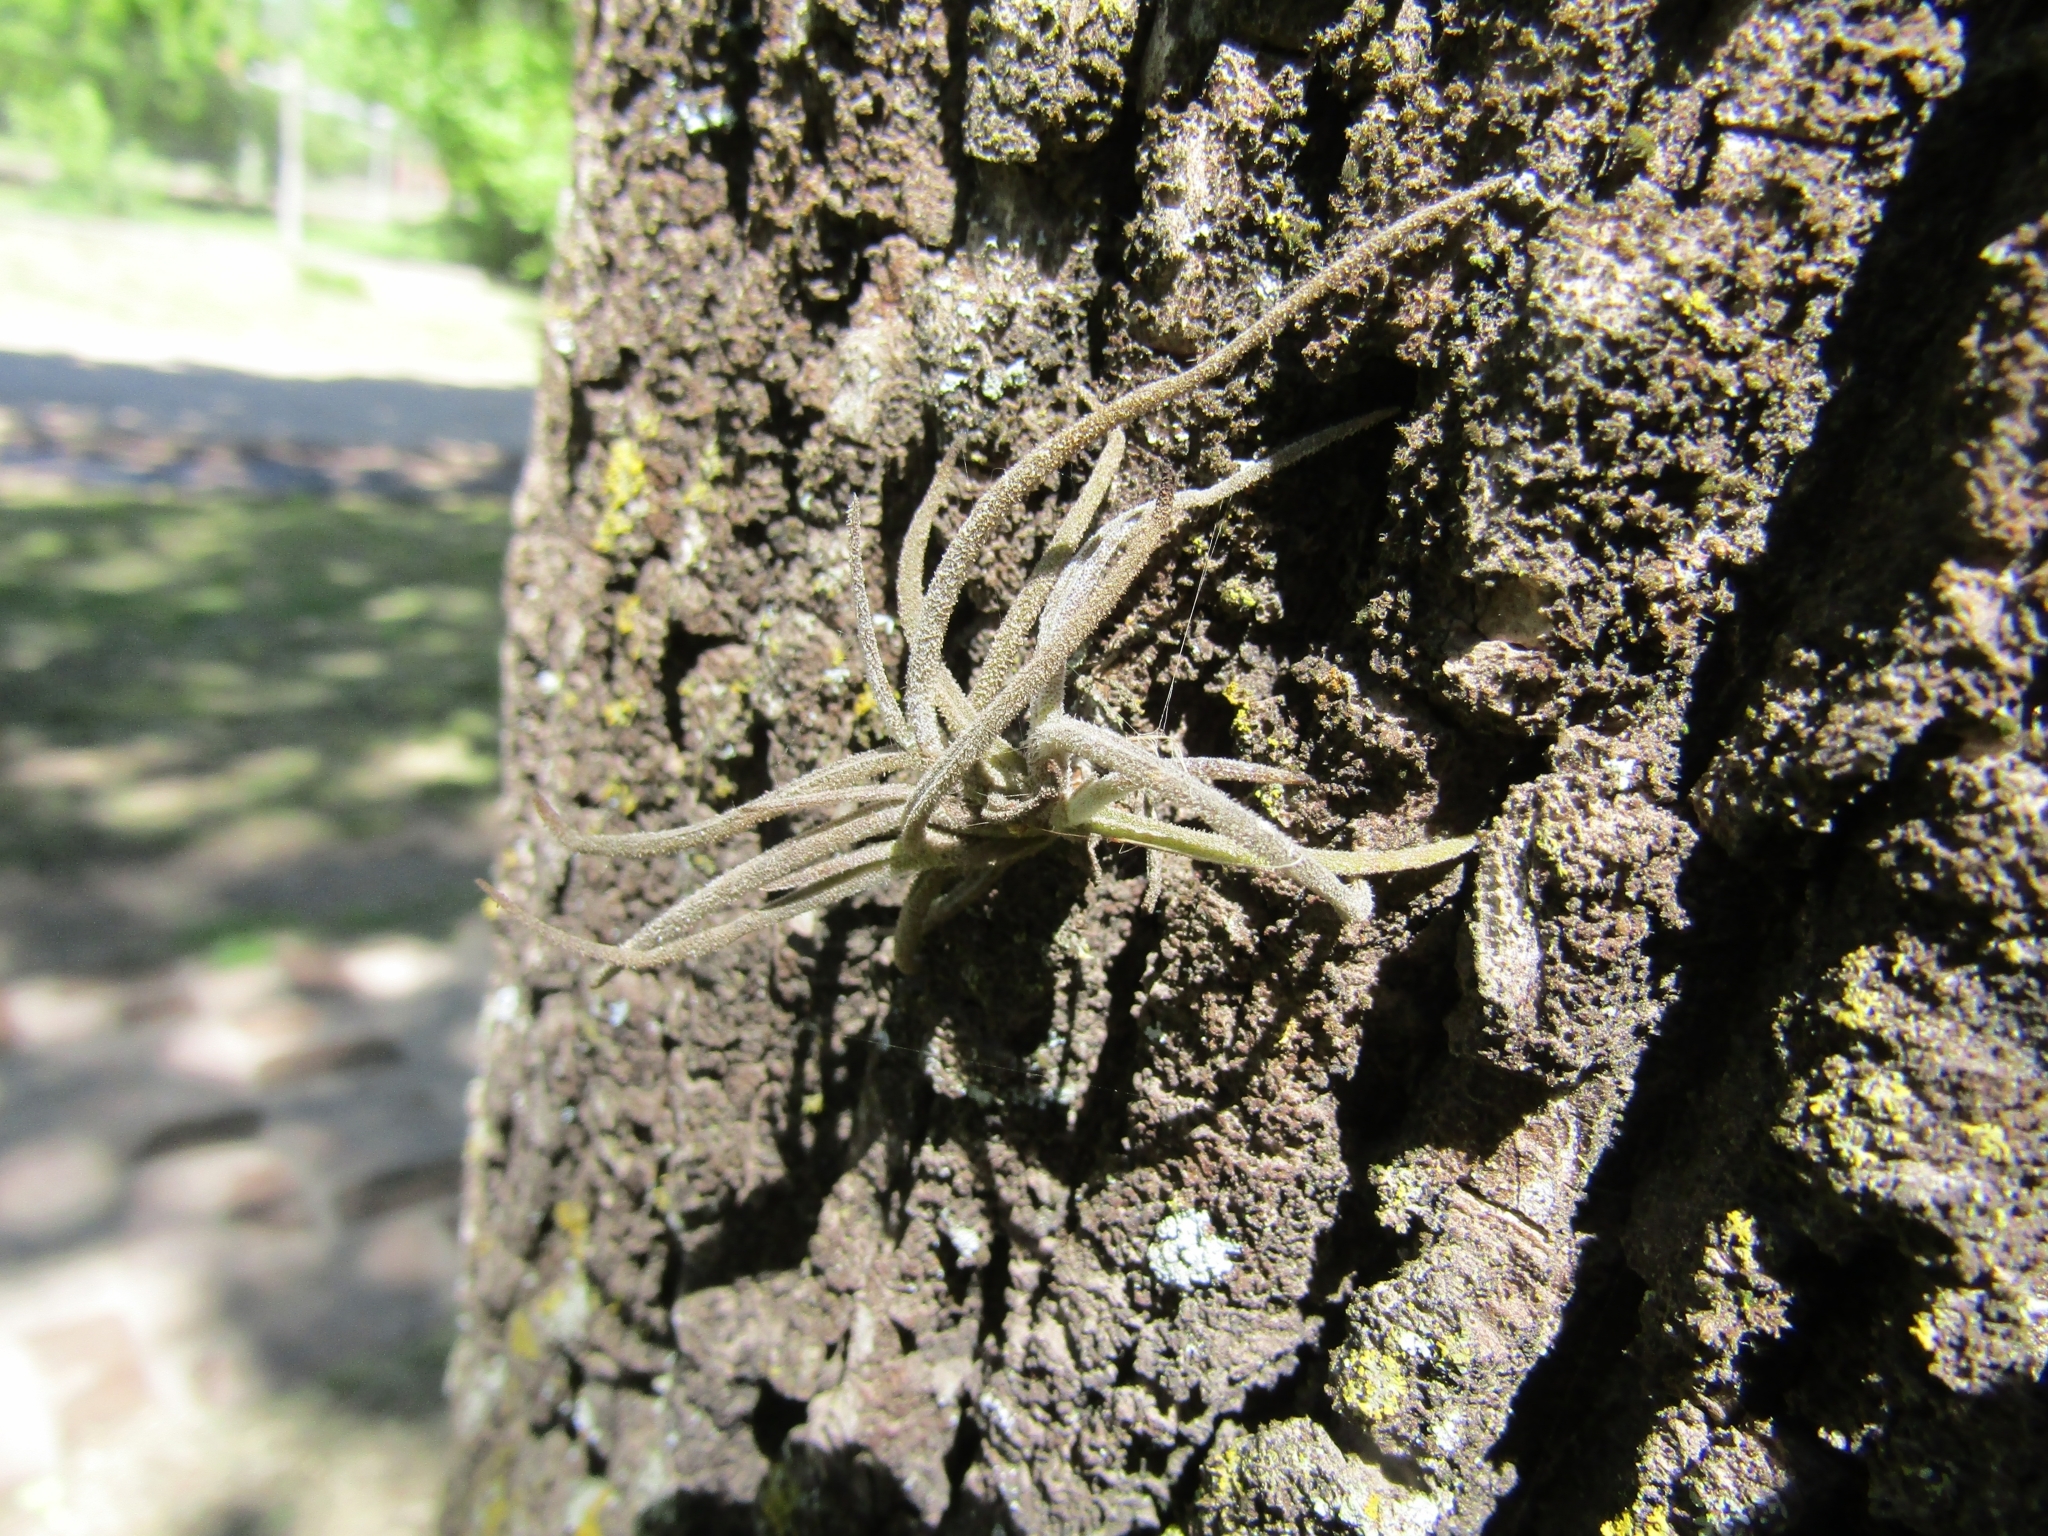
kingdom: Plantae
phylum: Tracheophyta
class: Liliopsida
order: Poales
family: Bromeliaceae
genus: Tillandsia
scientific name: Tillandsia recurvata
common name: Small ballmoss
